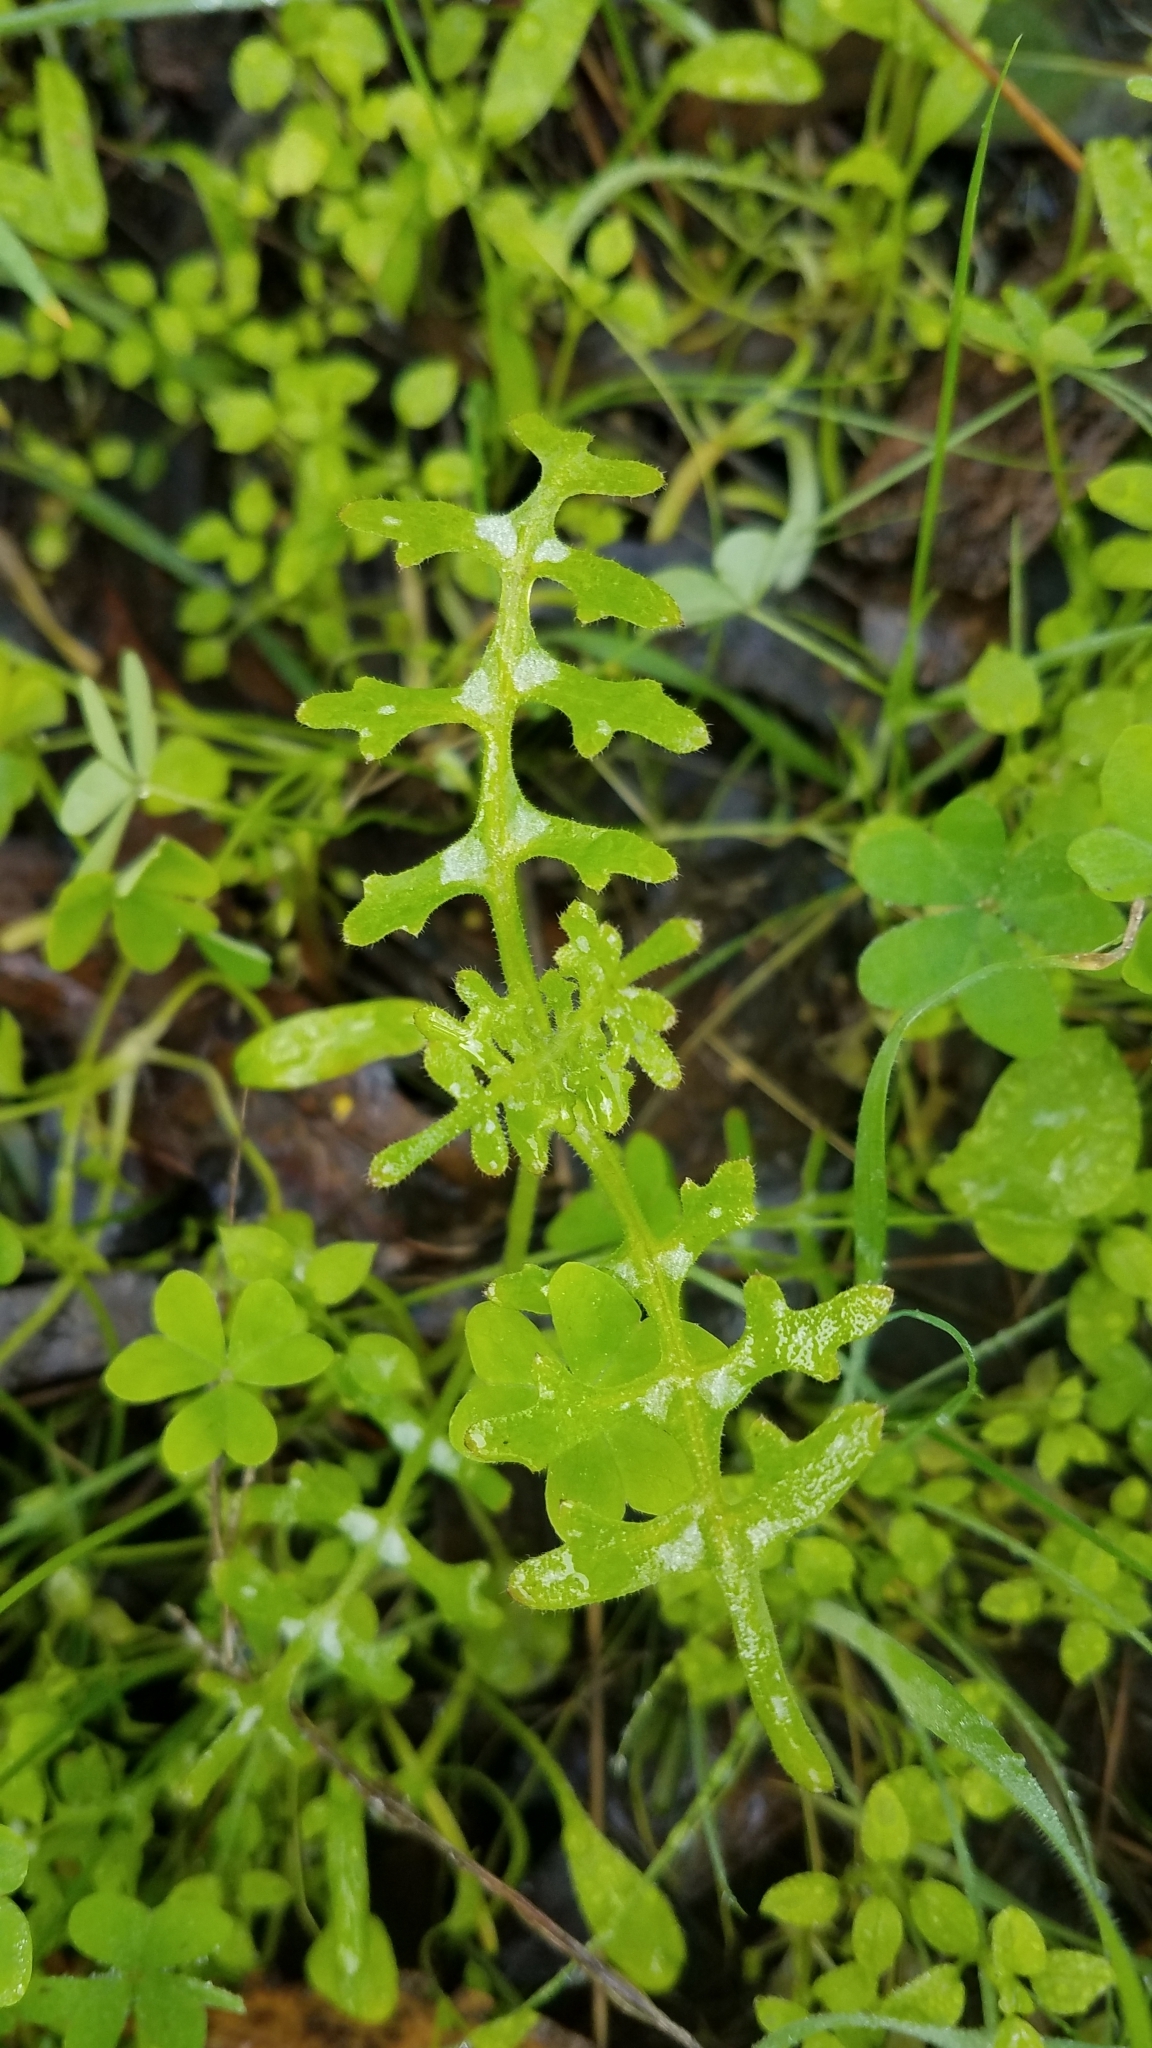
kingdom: Plantae
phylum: Tracheophyta
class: Magnoliopsida
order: Boraginales
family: Hydrophyllaceae
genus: Pholistoma
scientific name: Pholistoma auritum
